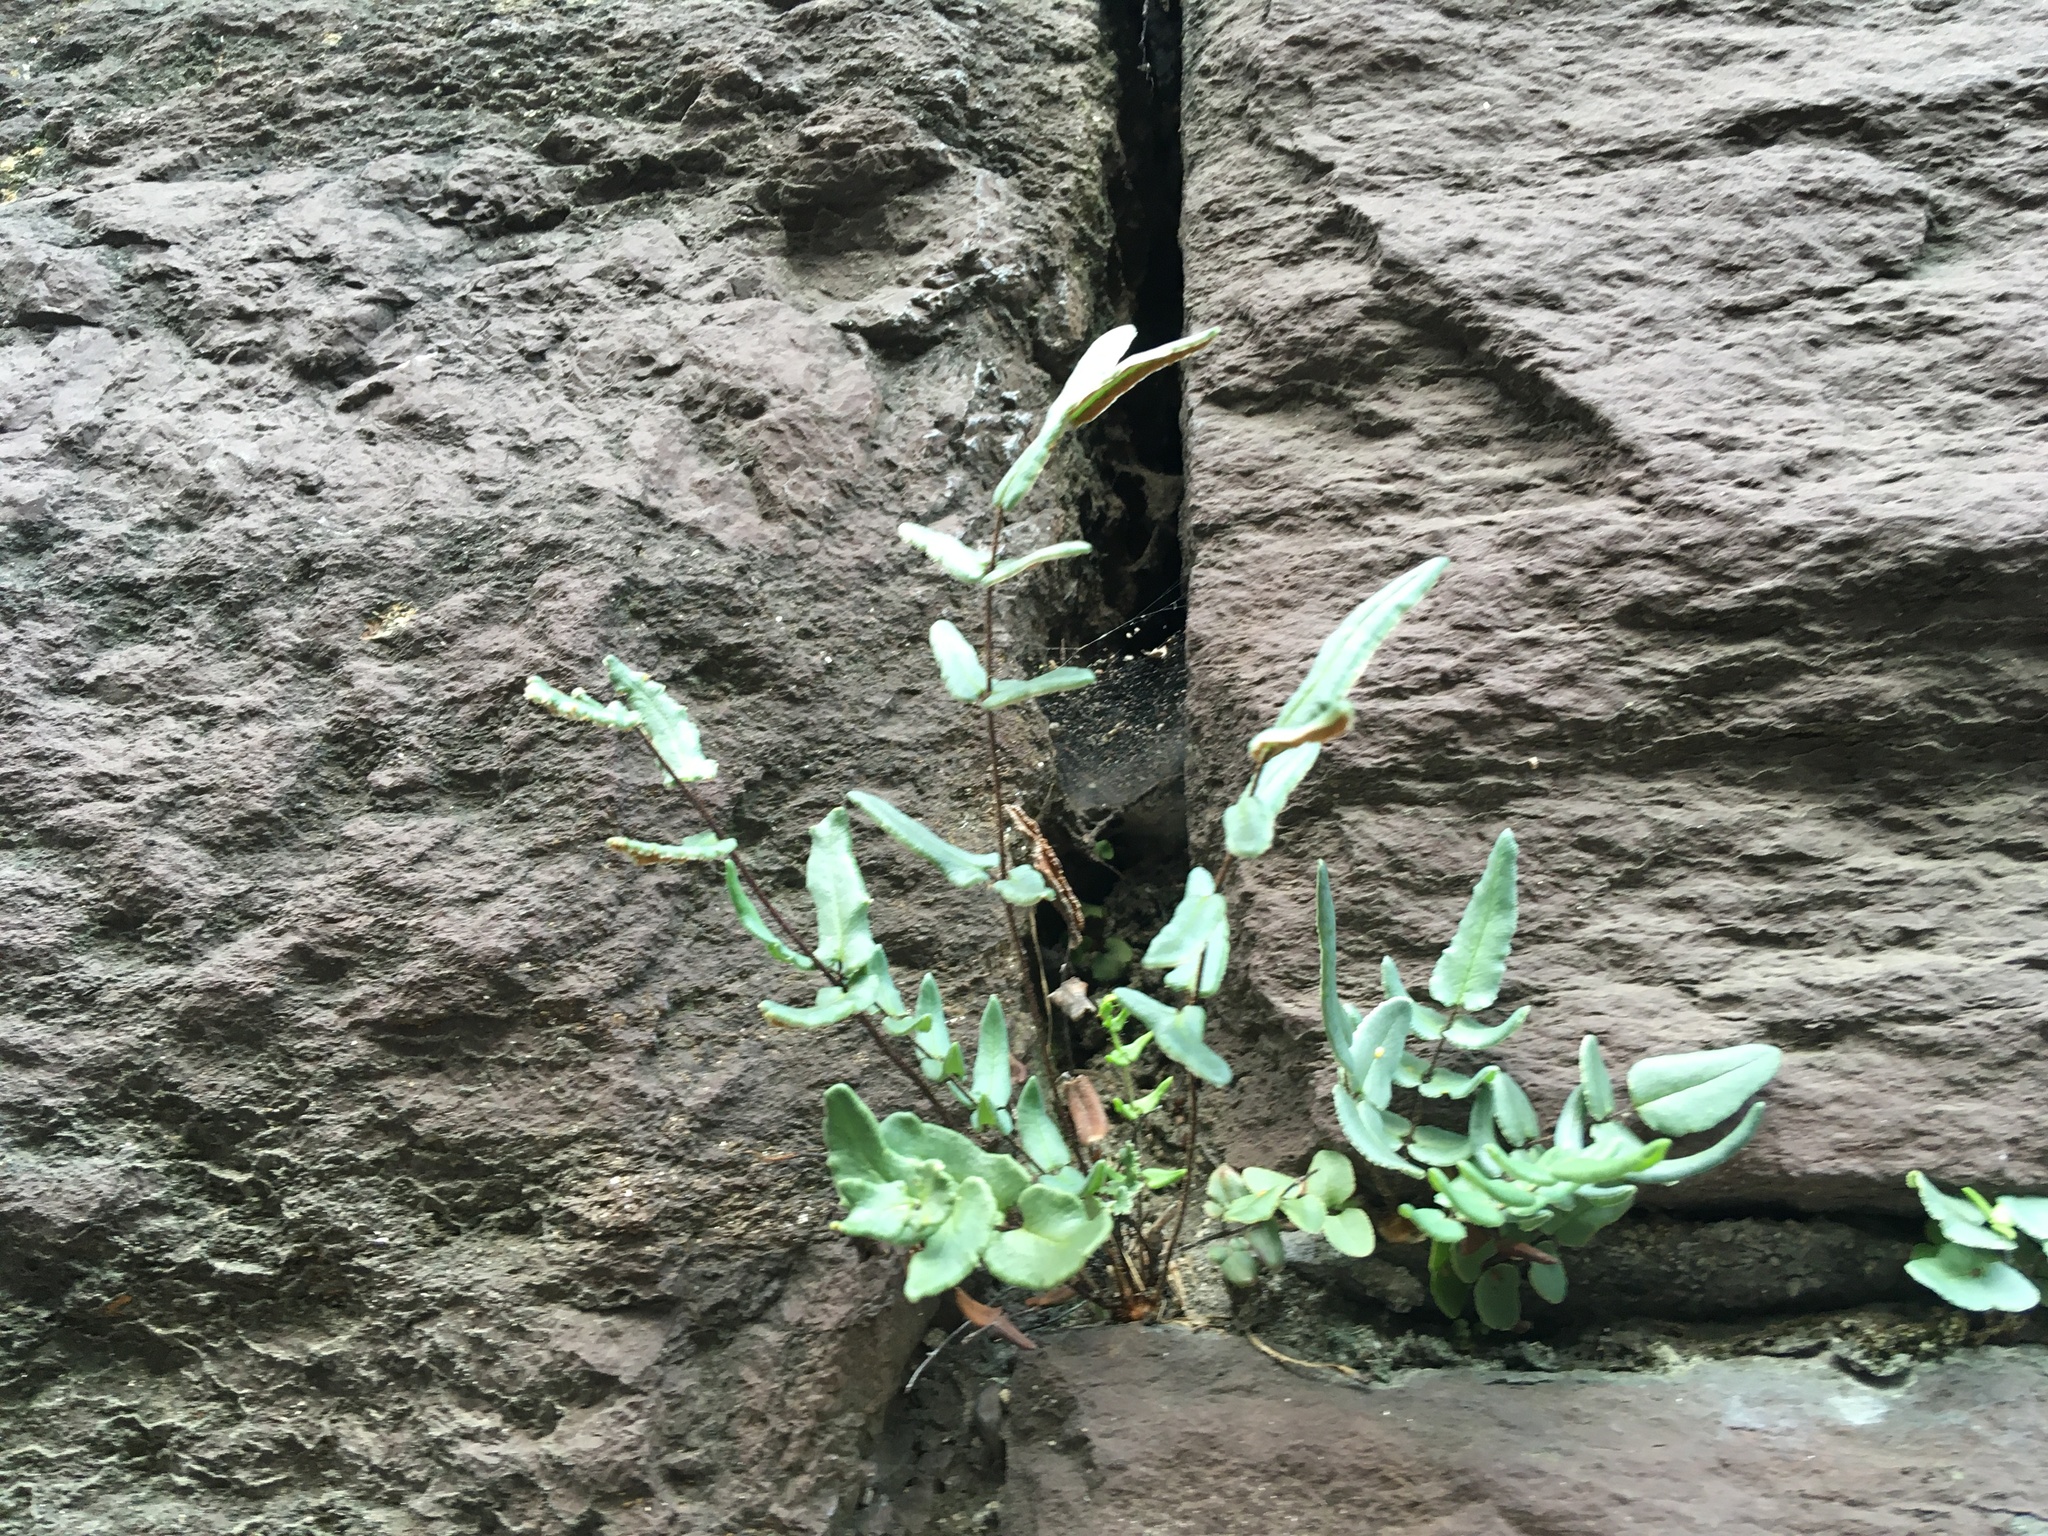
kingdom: Plantae
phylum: Tracheophyta
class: Polypodiopsida
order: Polypodiales
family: Pteridaceae
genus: Pellaea
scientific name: Pellaea atropurpurea
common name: Hairy cliffbrake
